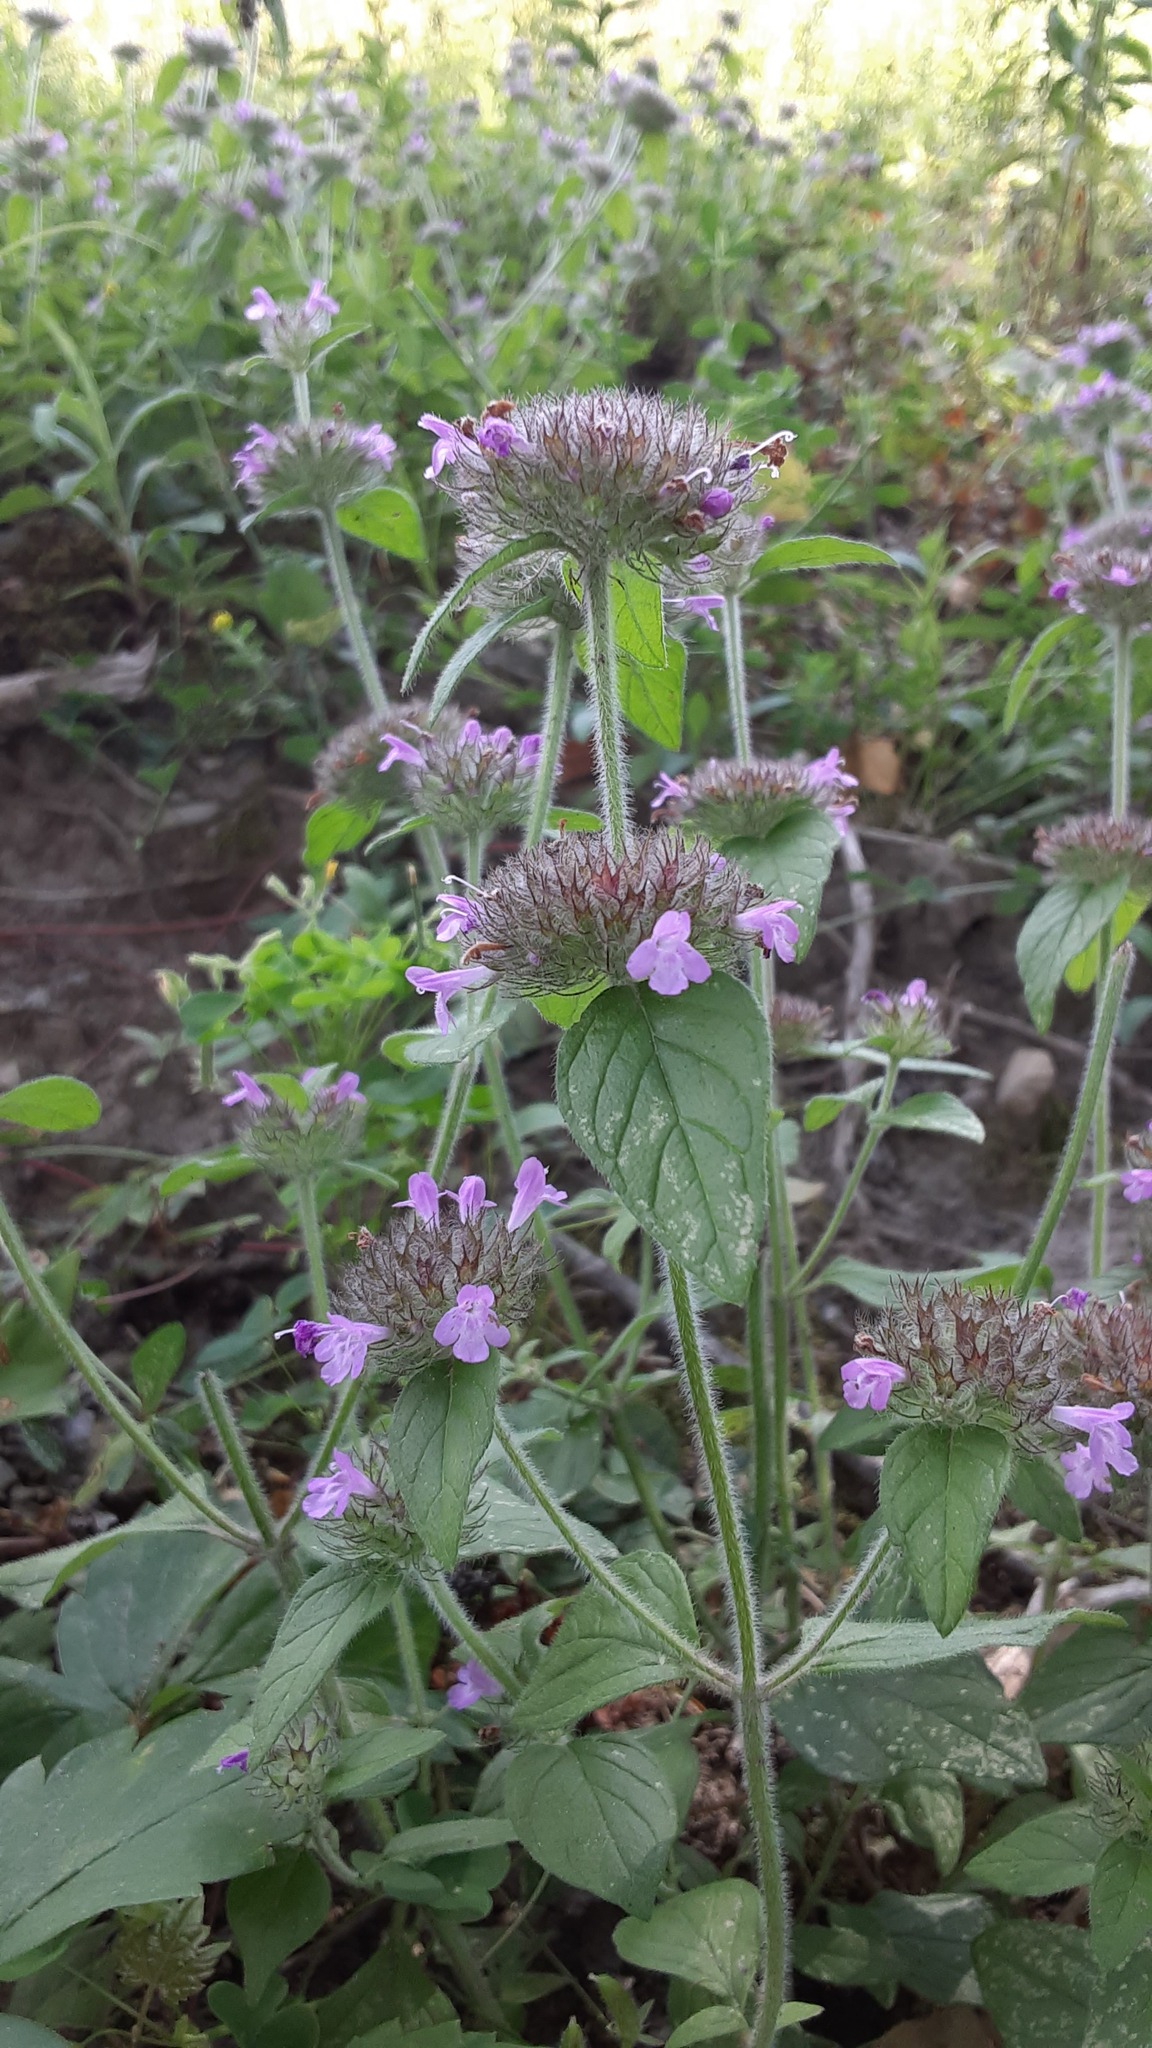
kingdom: Plantae
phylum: Tracheophyta
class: Magnoliopsida
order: Lamiales
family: Lamiaceae
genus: Clinopodium
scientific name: Clinopodium vulgare
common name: Wild basil
